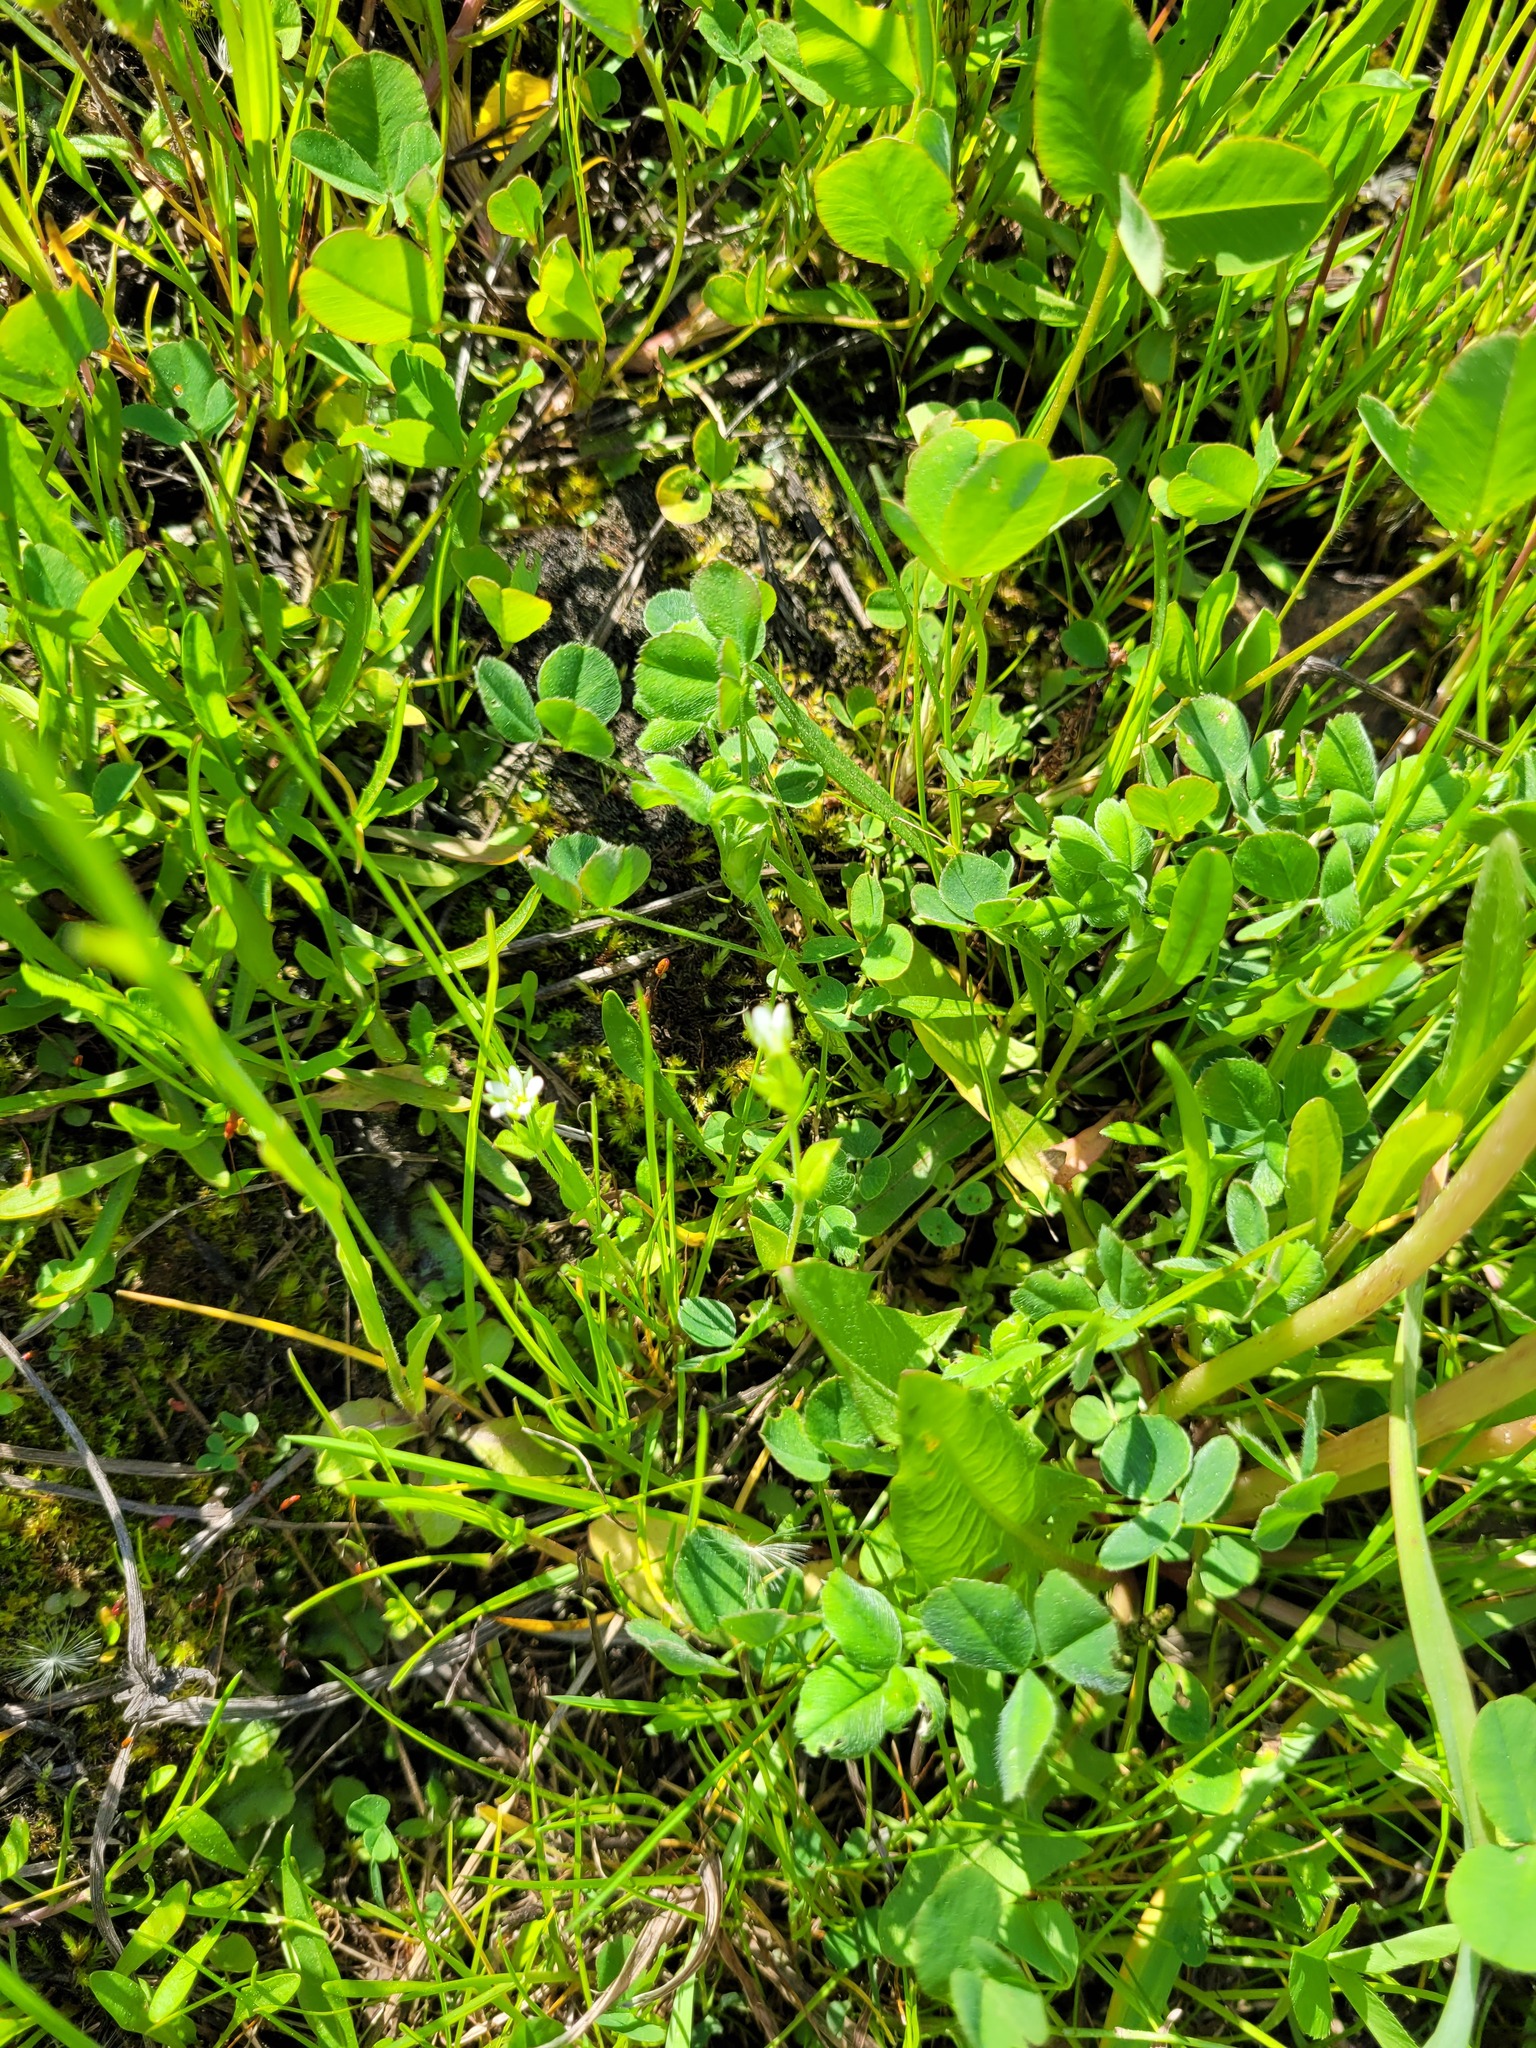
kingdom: Plantae
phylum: Tracheophyta
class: Magnoliopsida
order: Caryophyllales
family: Caryophyllaceae
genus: Moehringia
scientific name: Moehringia trinervia
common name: Three-nerved sandwort
